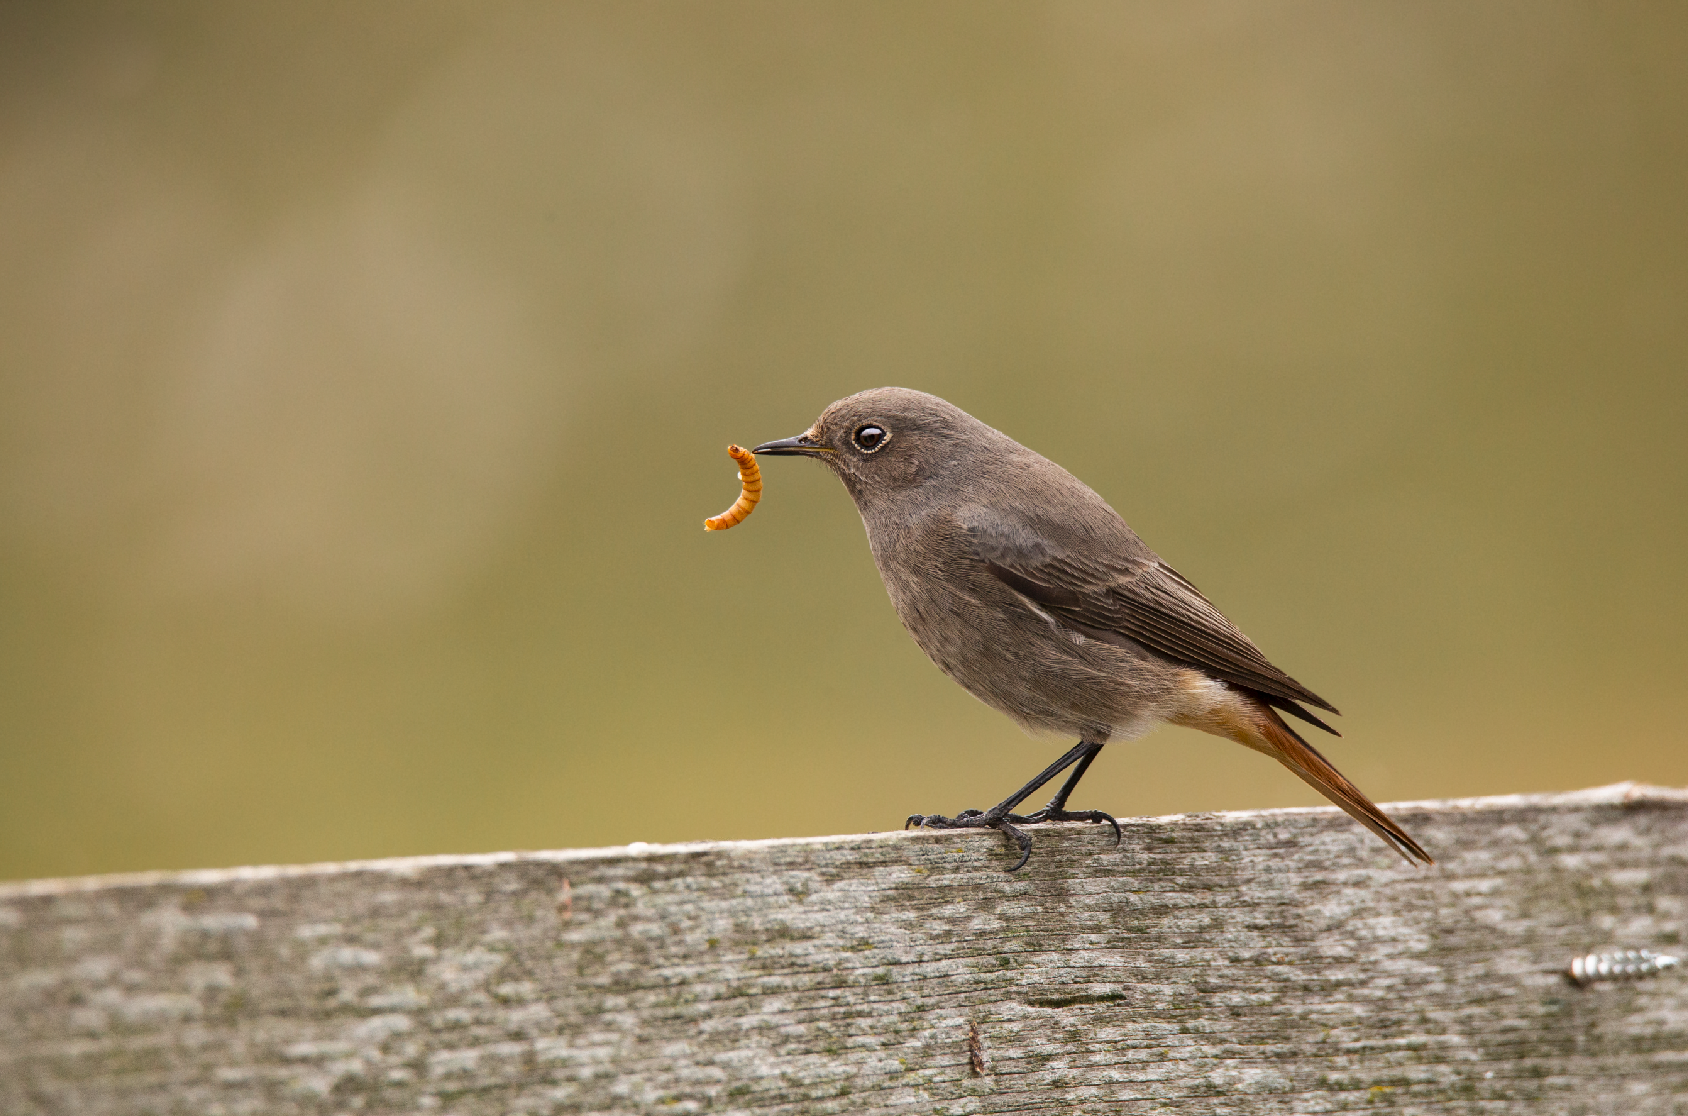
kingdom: Animalia
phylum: Chordata
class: Aves
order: Passeriformes
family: Muscicapidae
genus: Phoenicurus
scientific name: Phoenicurus ochruros
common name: Black redstart
